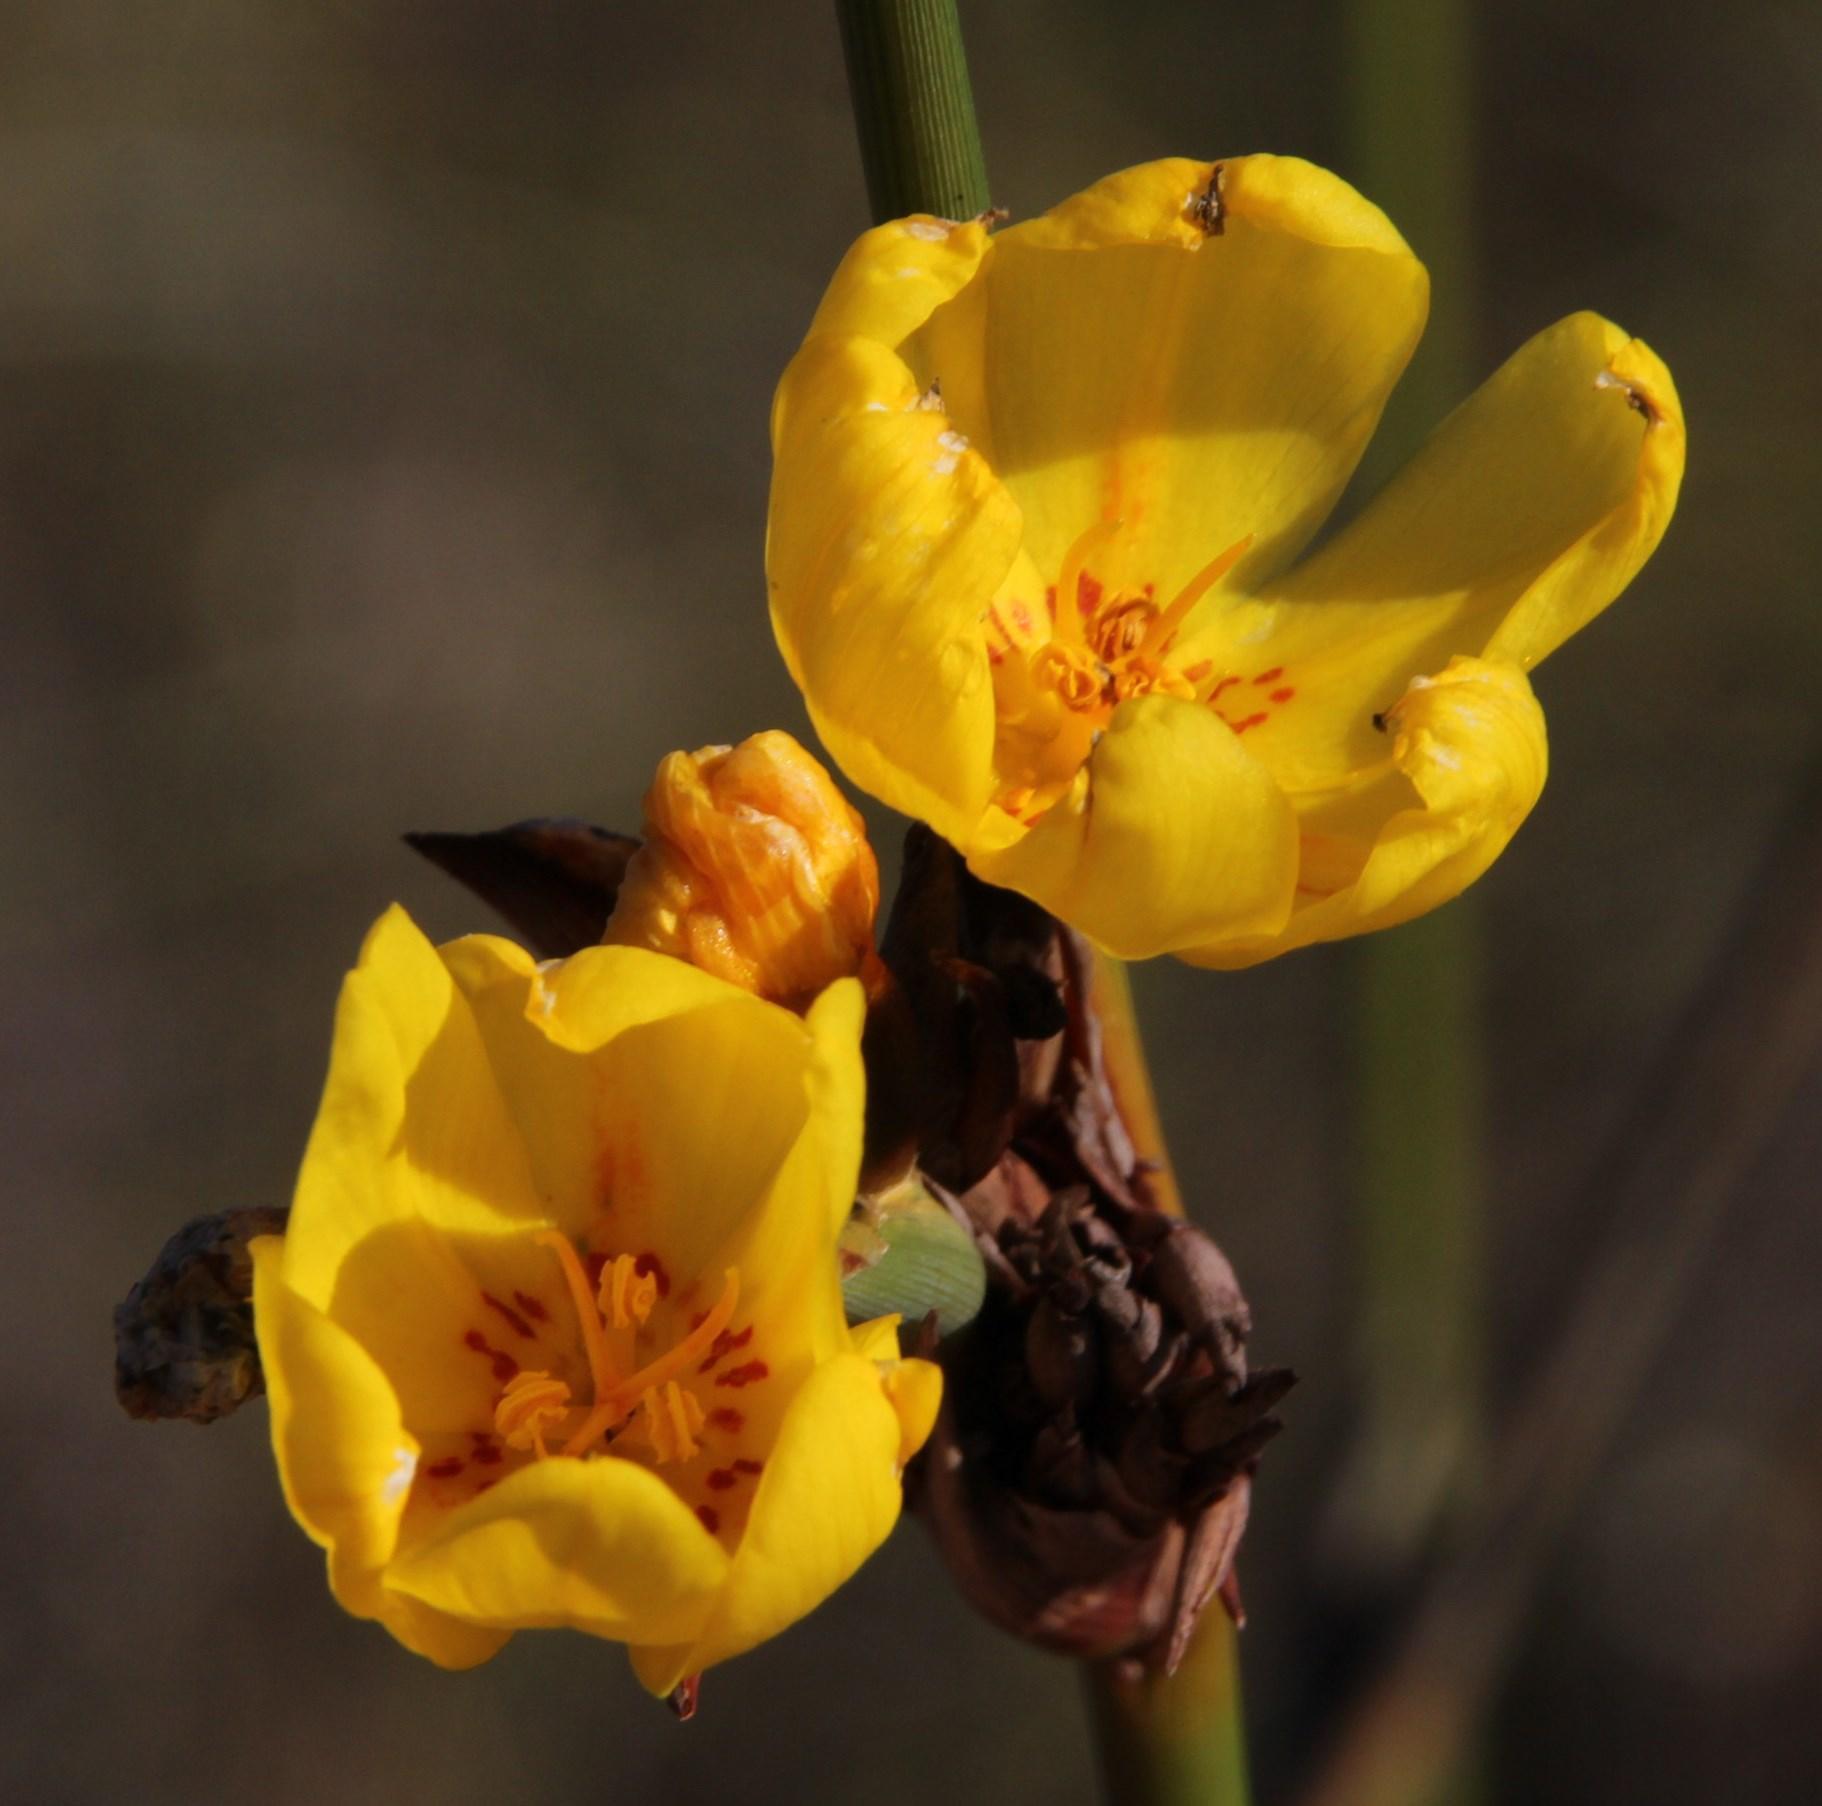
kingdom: Plantae
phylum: Tracheophyta
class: Liliopsida
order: Asparagales
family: Iridaceae
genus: Bobartia
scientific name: Bobartia longicyma
